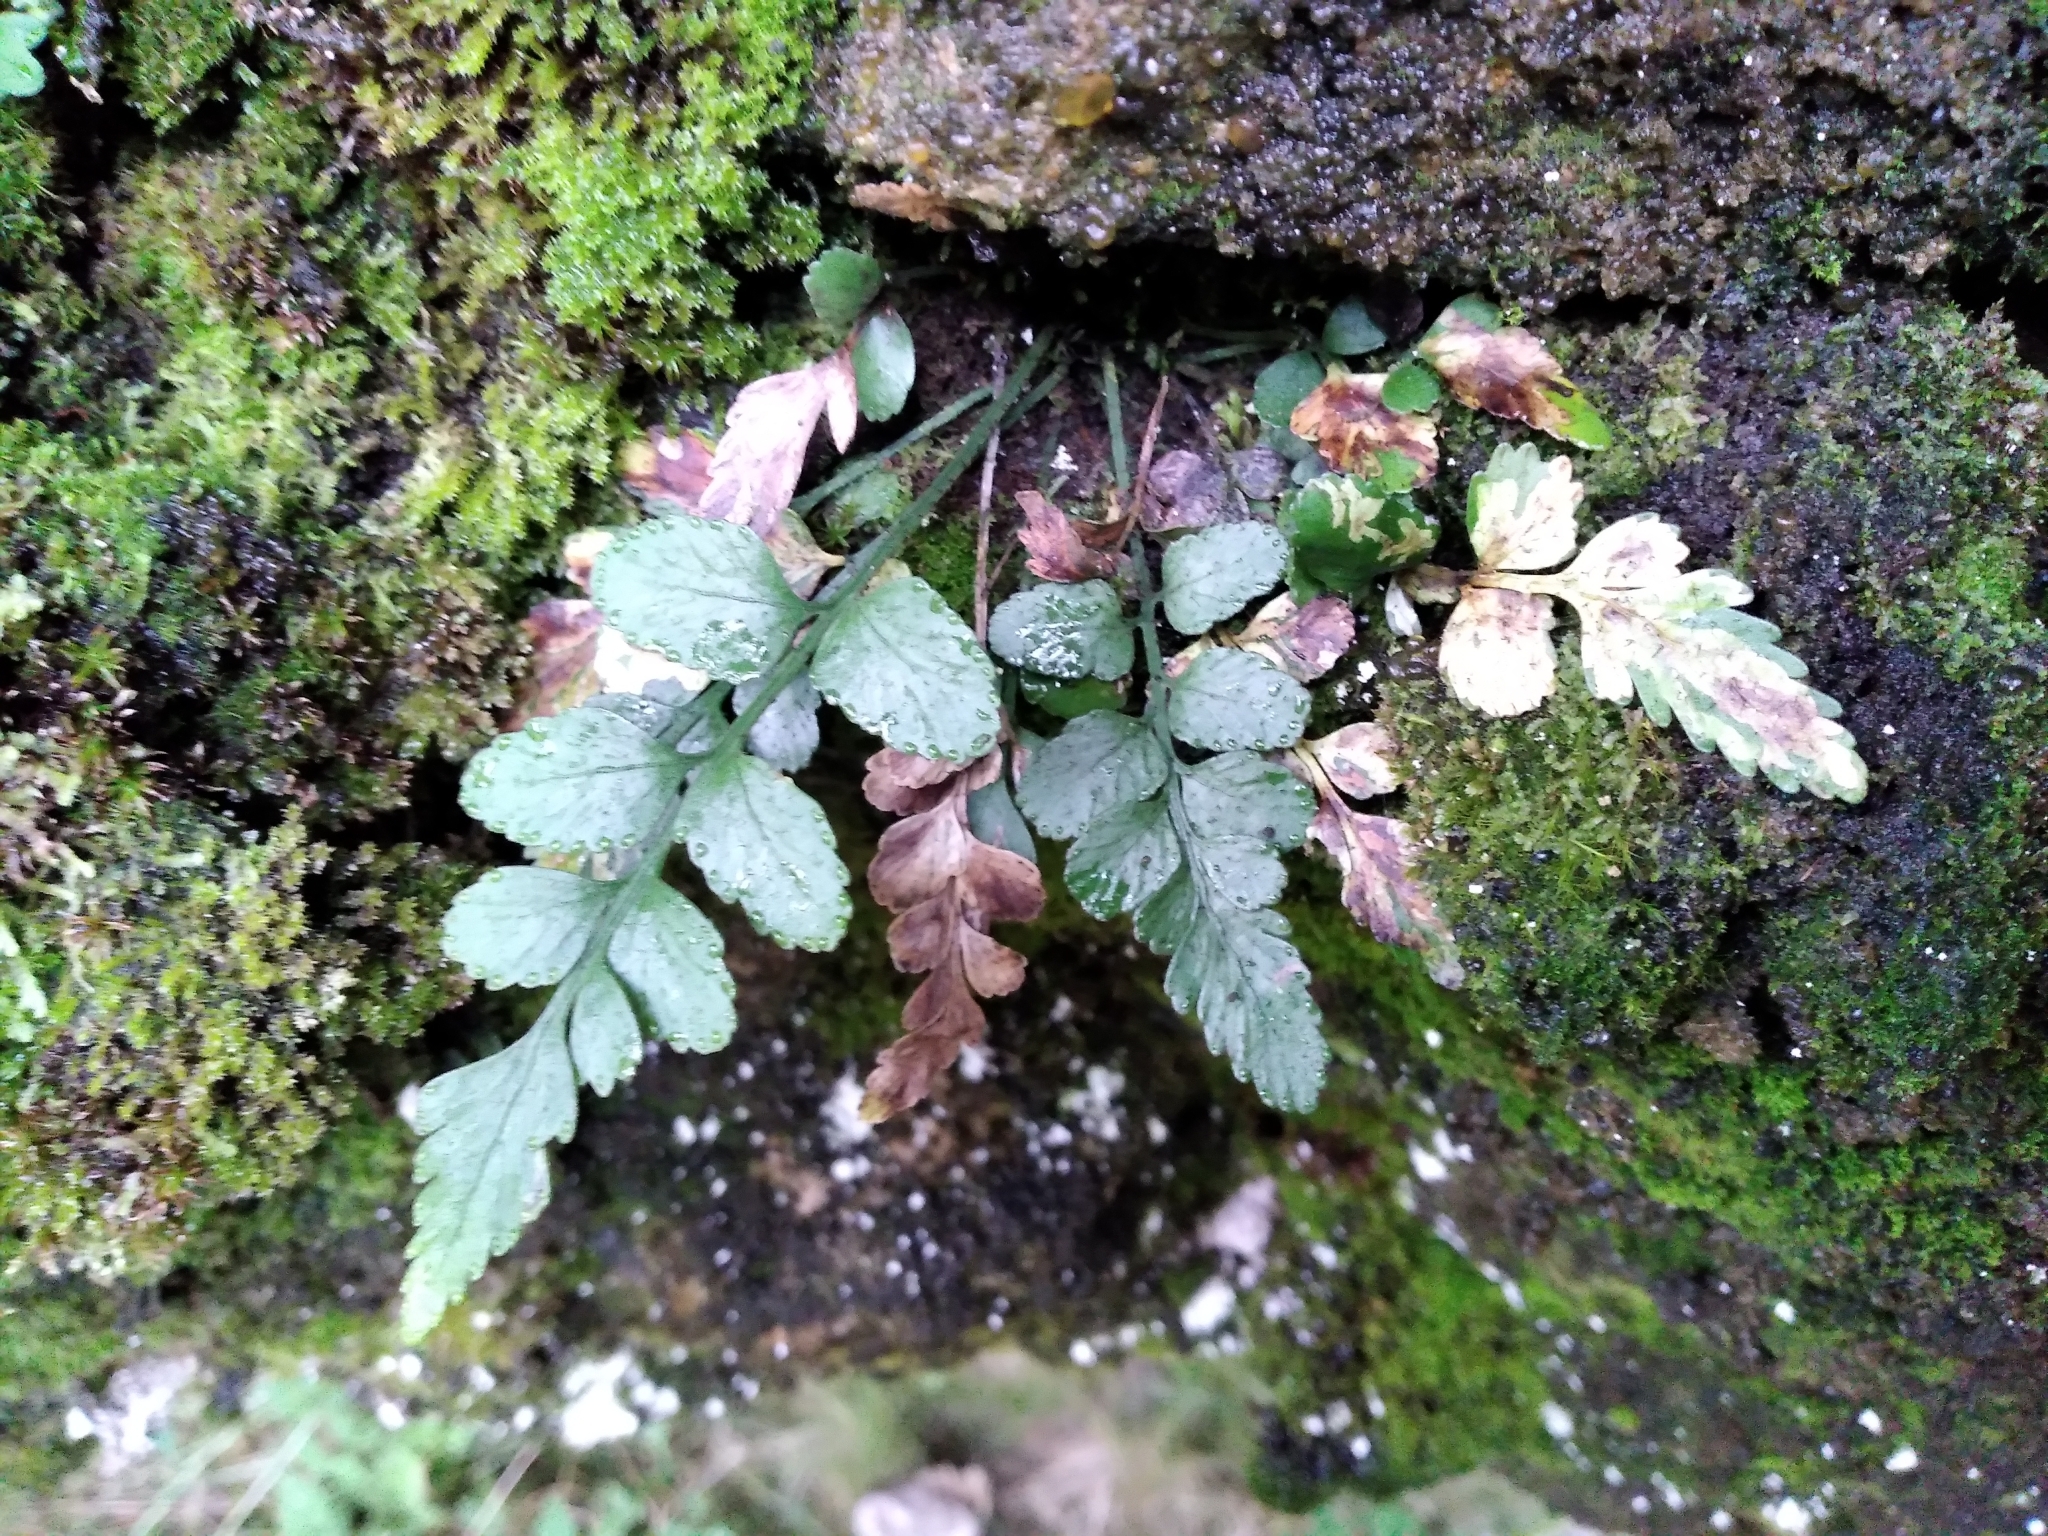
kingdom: Plantae
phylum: Tracheophyta
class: Polypodiopsida
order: Polypodiales
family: Aspleniaceae
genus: Asplenium
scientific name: Asplenium lyallii
